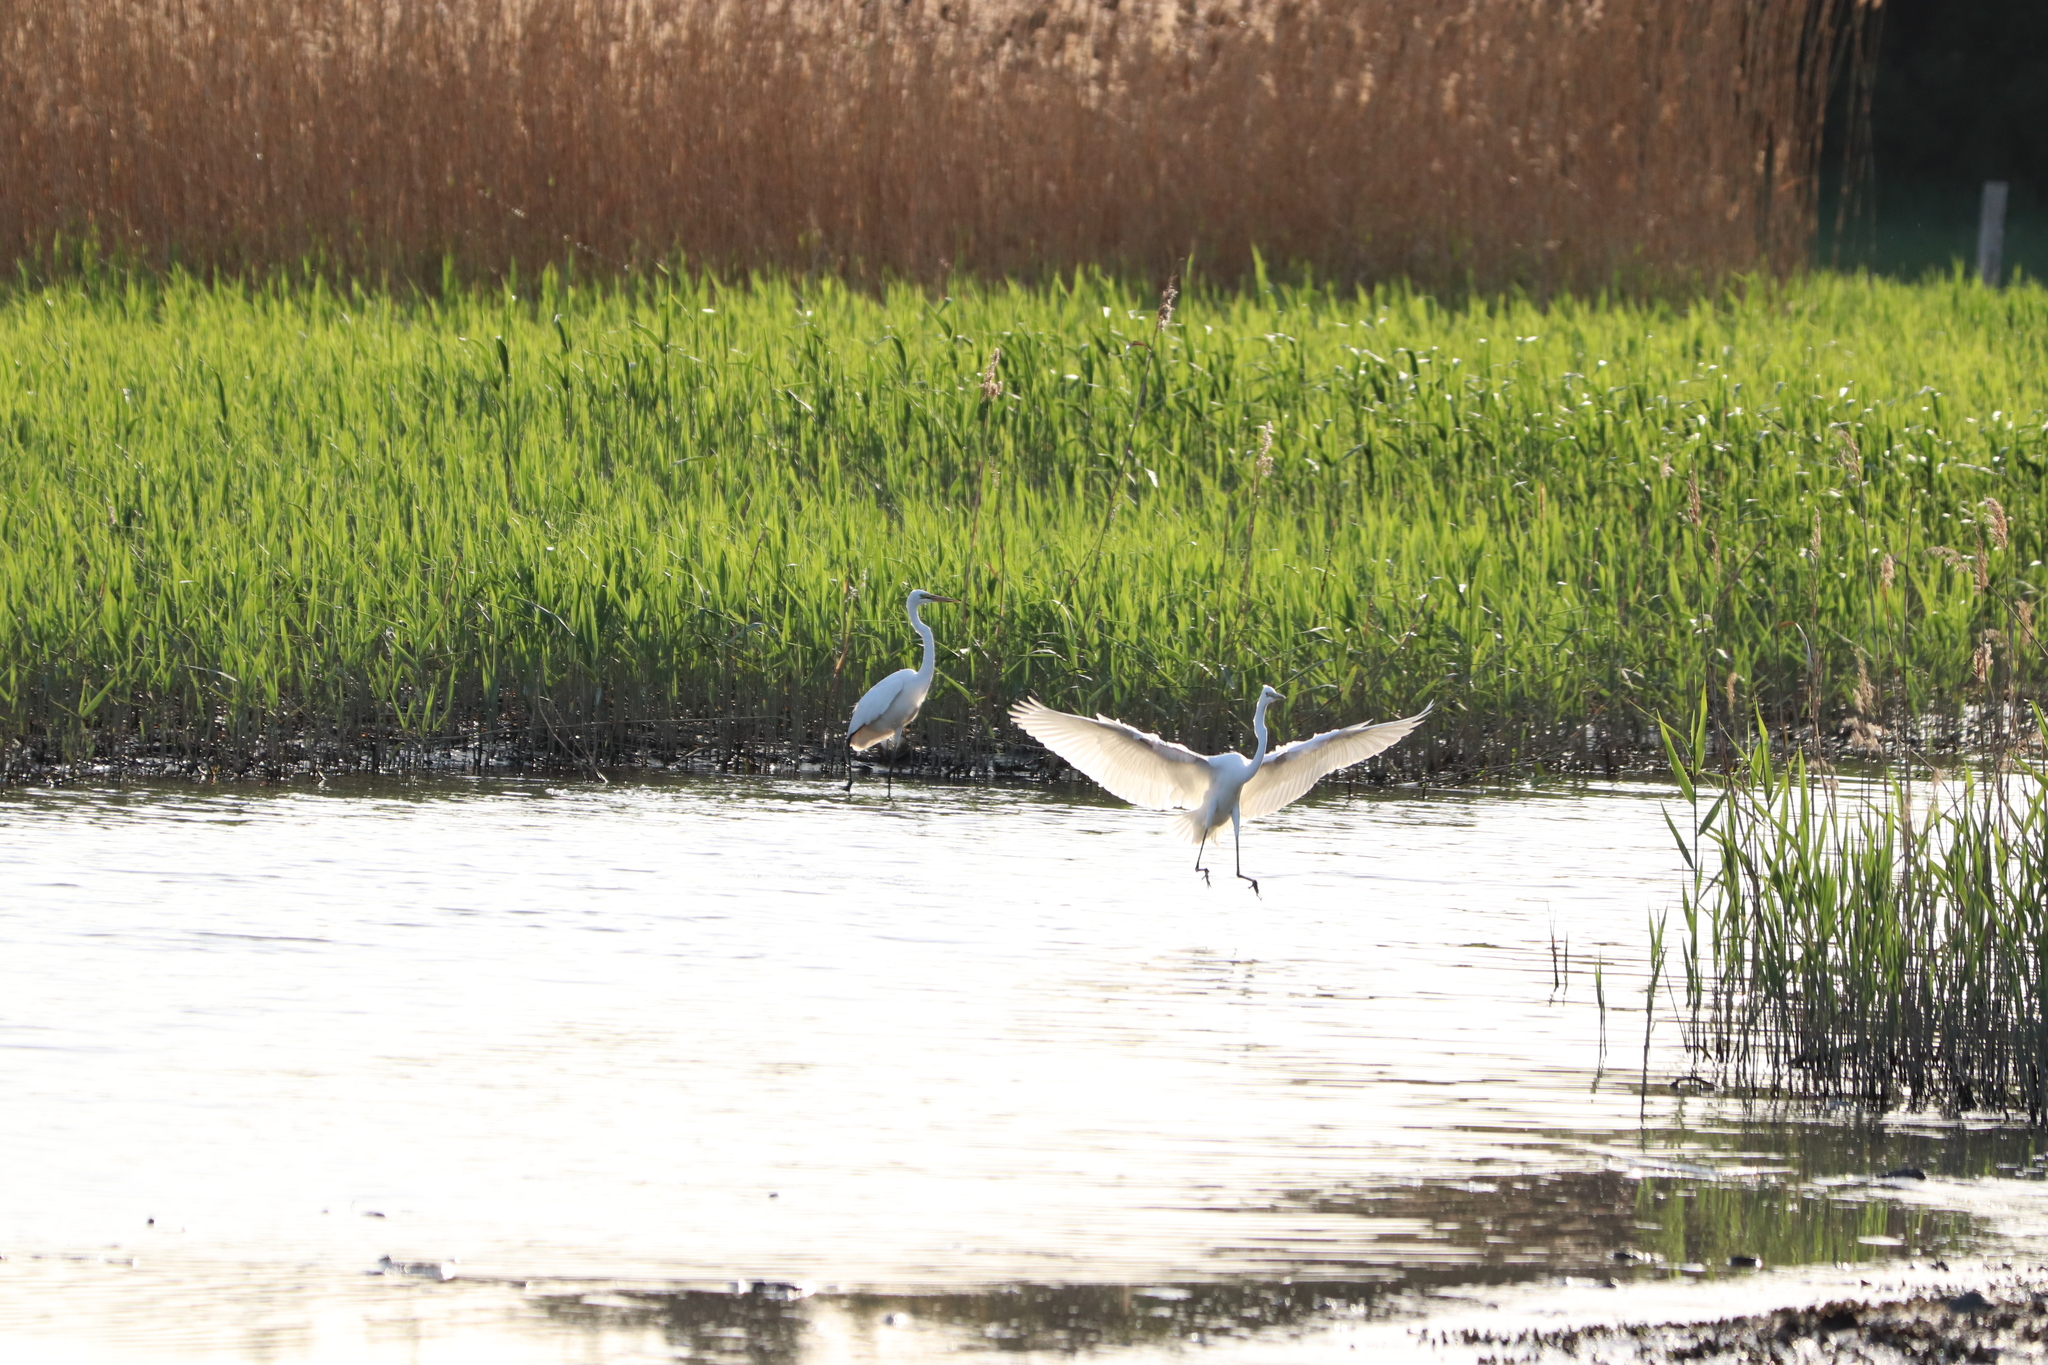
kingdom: Animalia
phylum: Chordata
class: Aves
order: Pelecaniformes
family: Ardeidae
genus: Ardea
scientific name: Ardea alba
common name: Great egret
